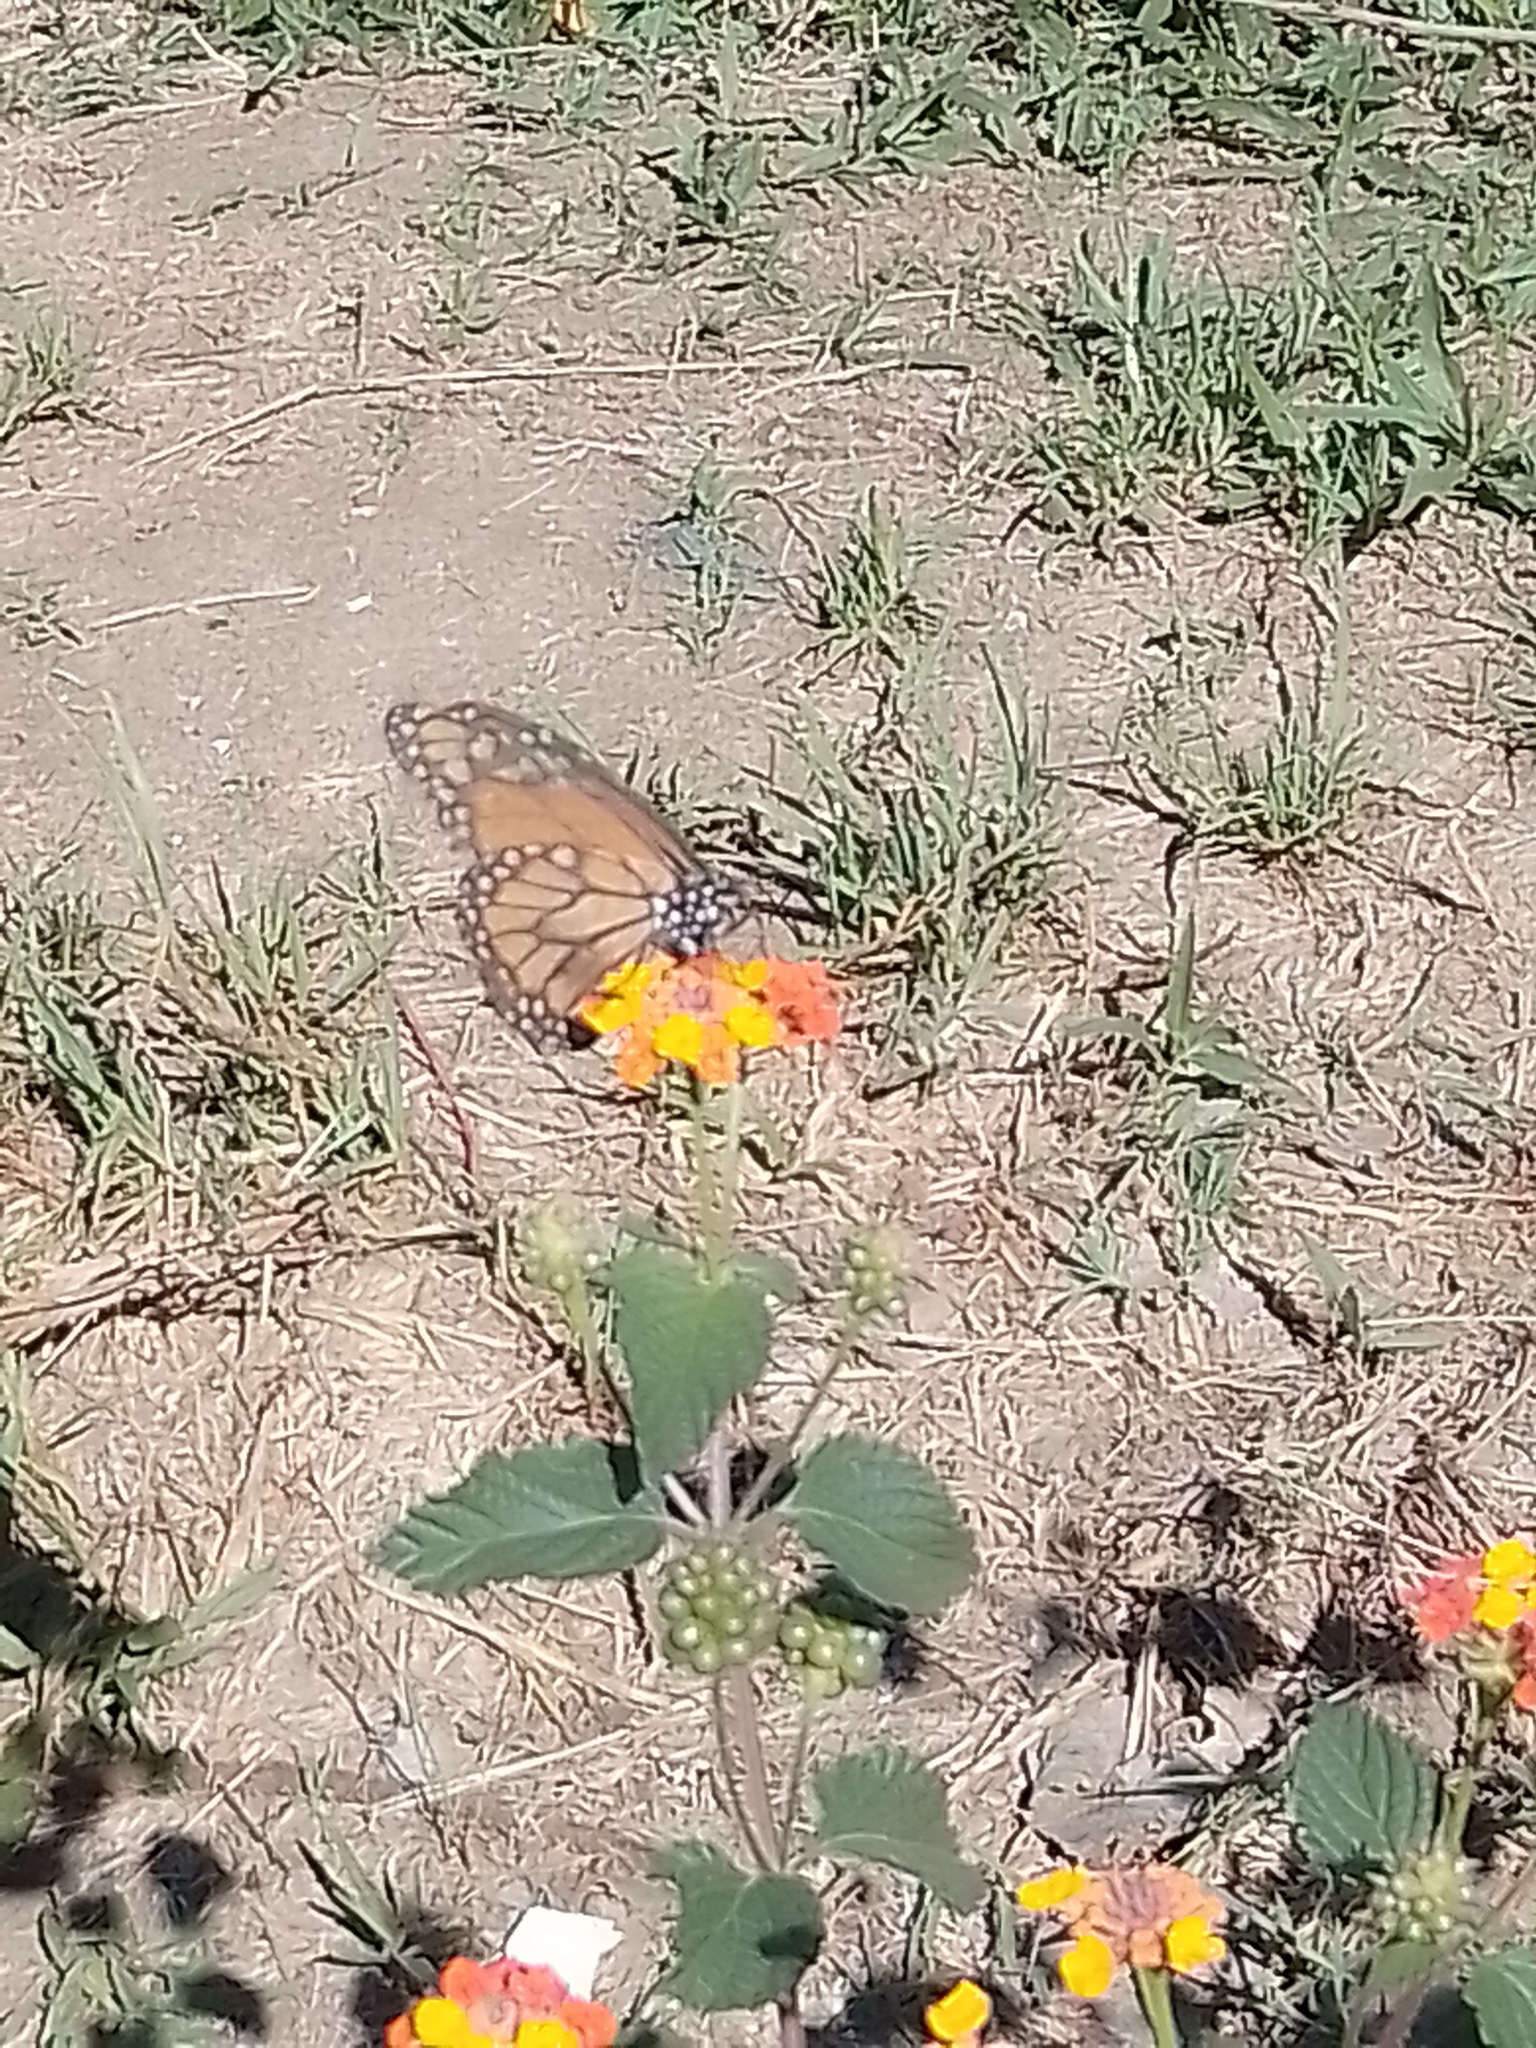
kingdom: Plantae
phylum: Tracheophyta
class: Magnoliopsida
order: Lamiales
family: Verbenaceae
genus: Lantana
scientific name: Lantana camara
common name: Lantana
